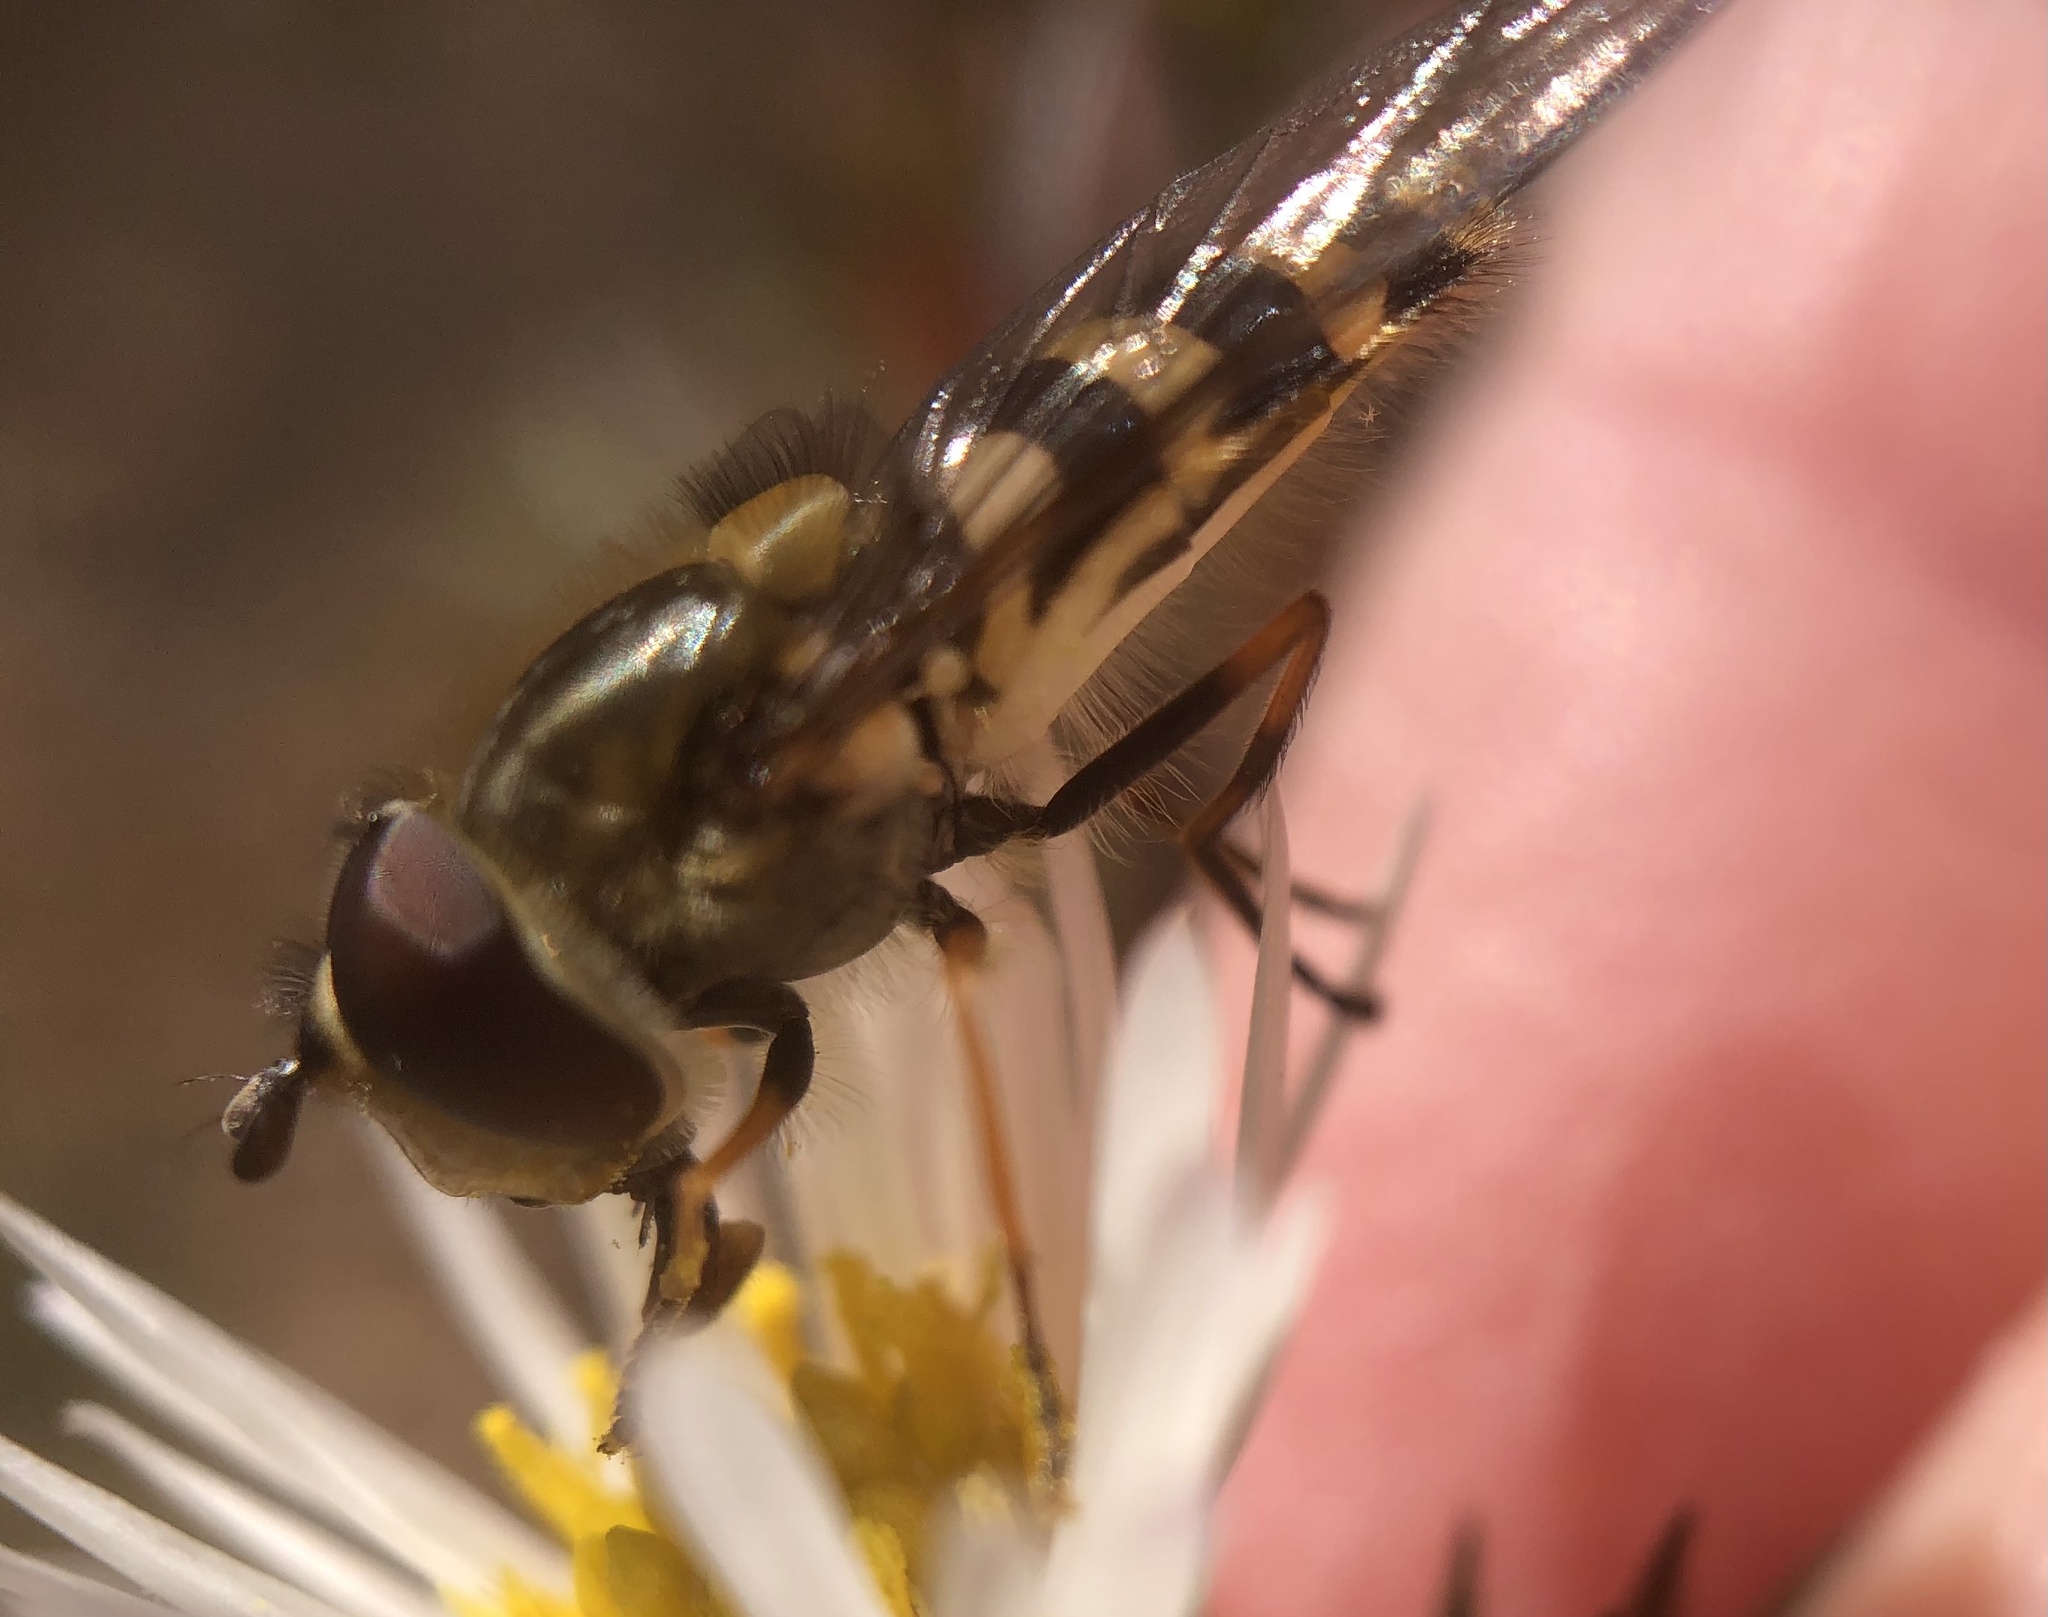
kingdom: Animalia
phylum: Arthropoda
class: Insecta
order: Diptera
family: Syrphidae
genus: Syrphus
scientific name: Syrphus torvus
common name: Hairy-eyed flower fly
